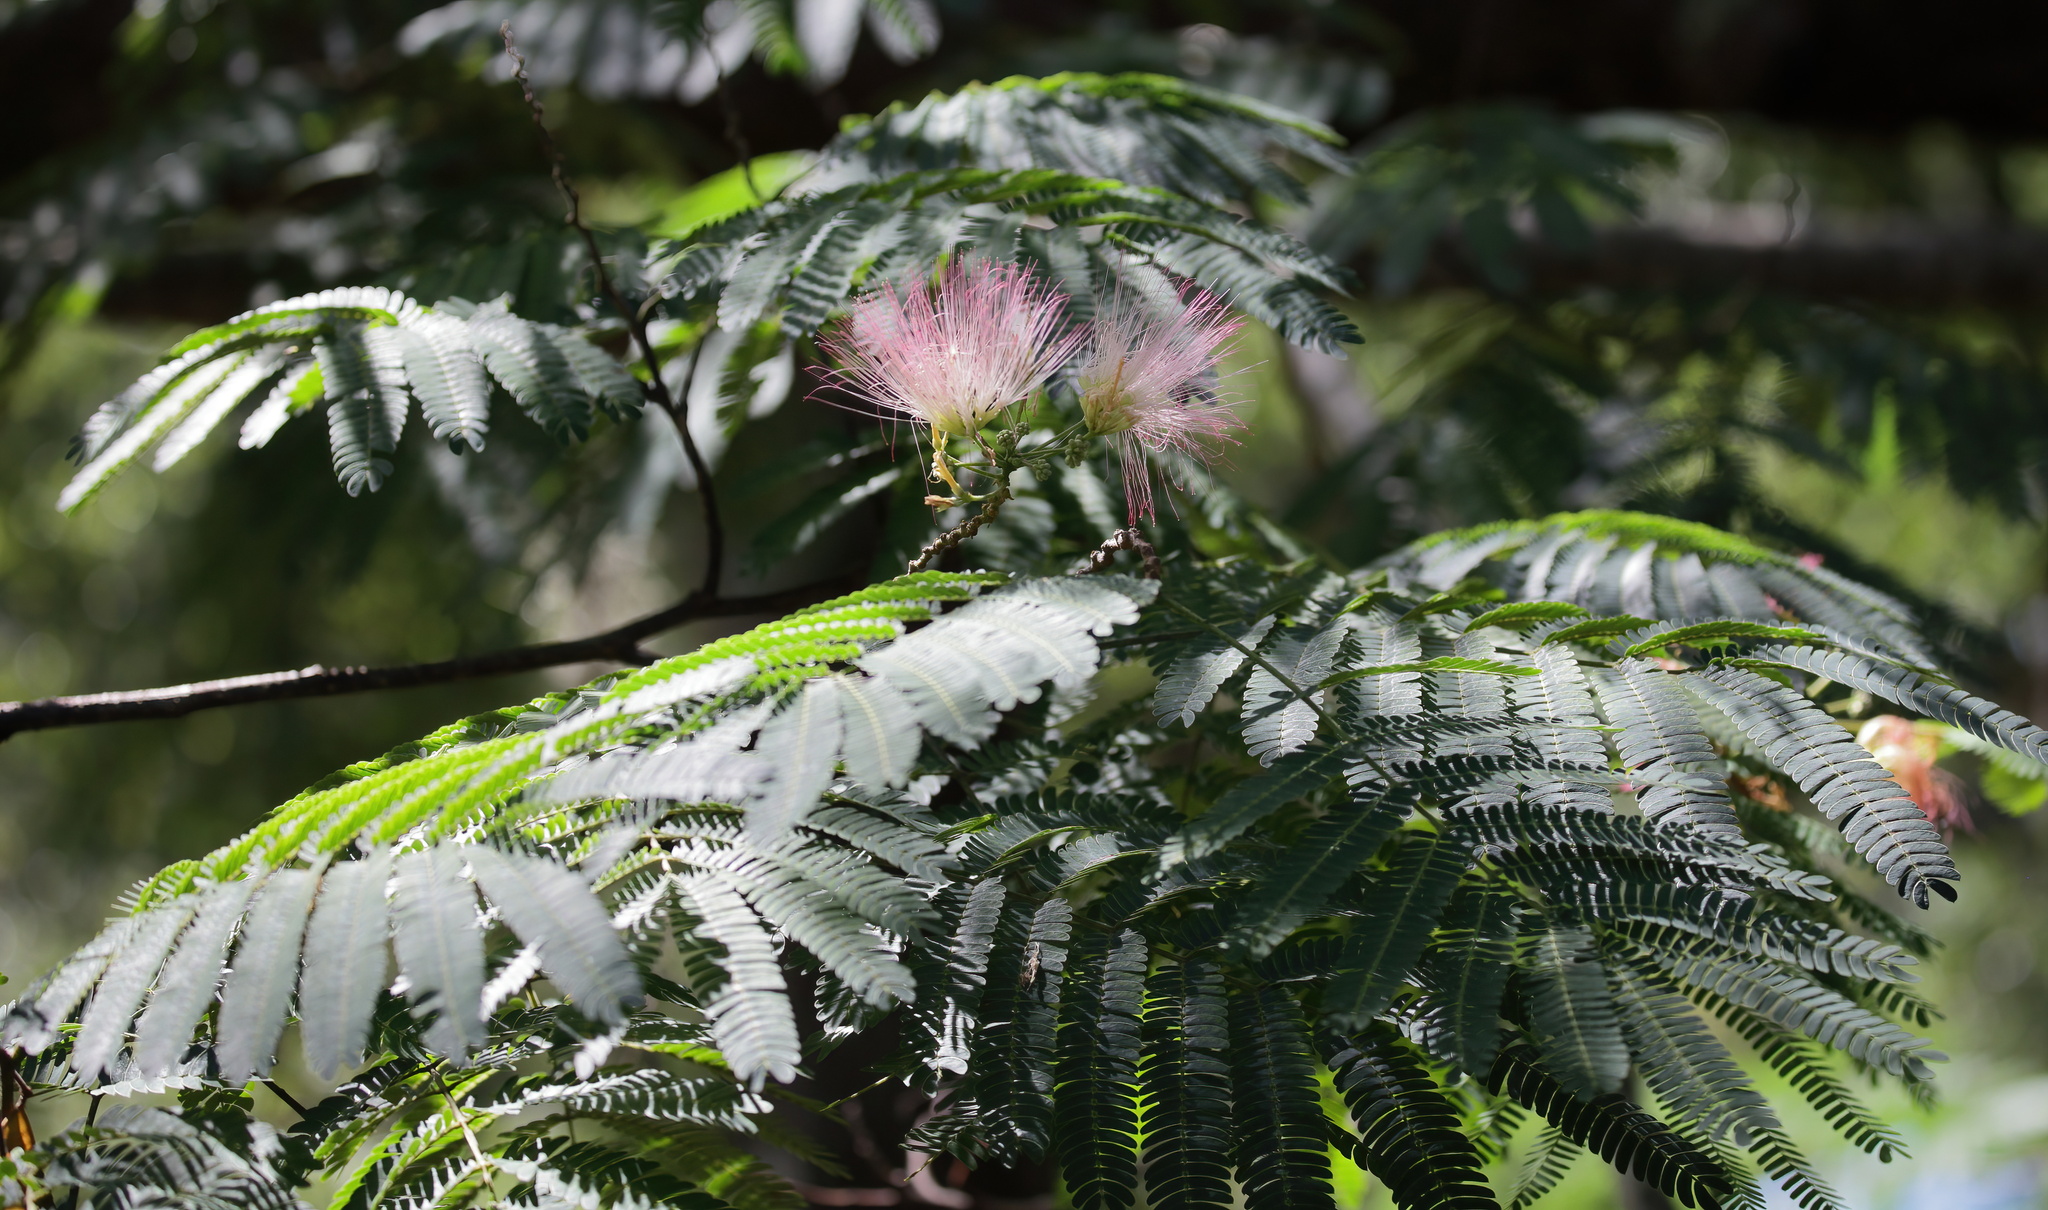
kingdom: Plantae
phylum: Tracheophyta
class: Magnoliopsida
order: Fabales
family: Fabaceae
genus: Albizia
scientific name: Albizia julibrissin
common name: Silktree
